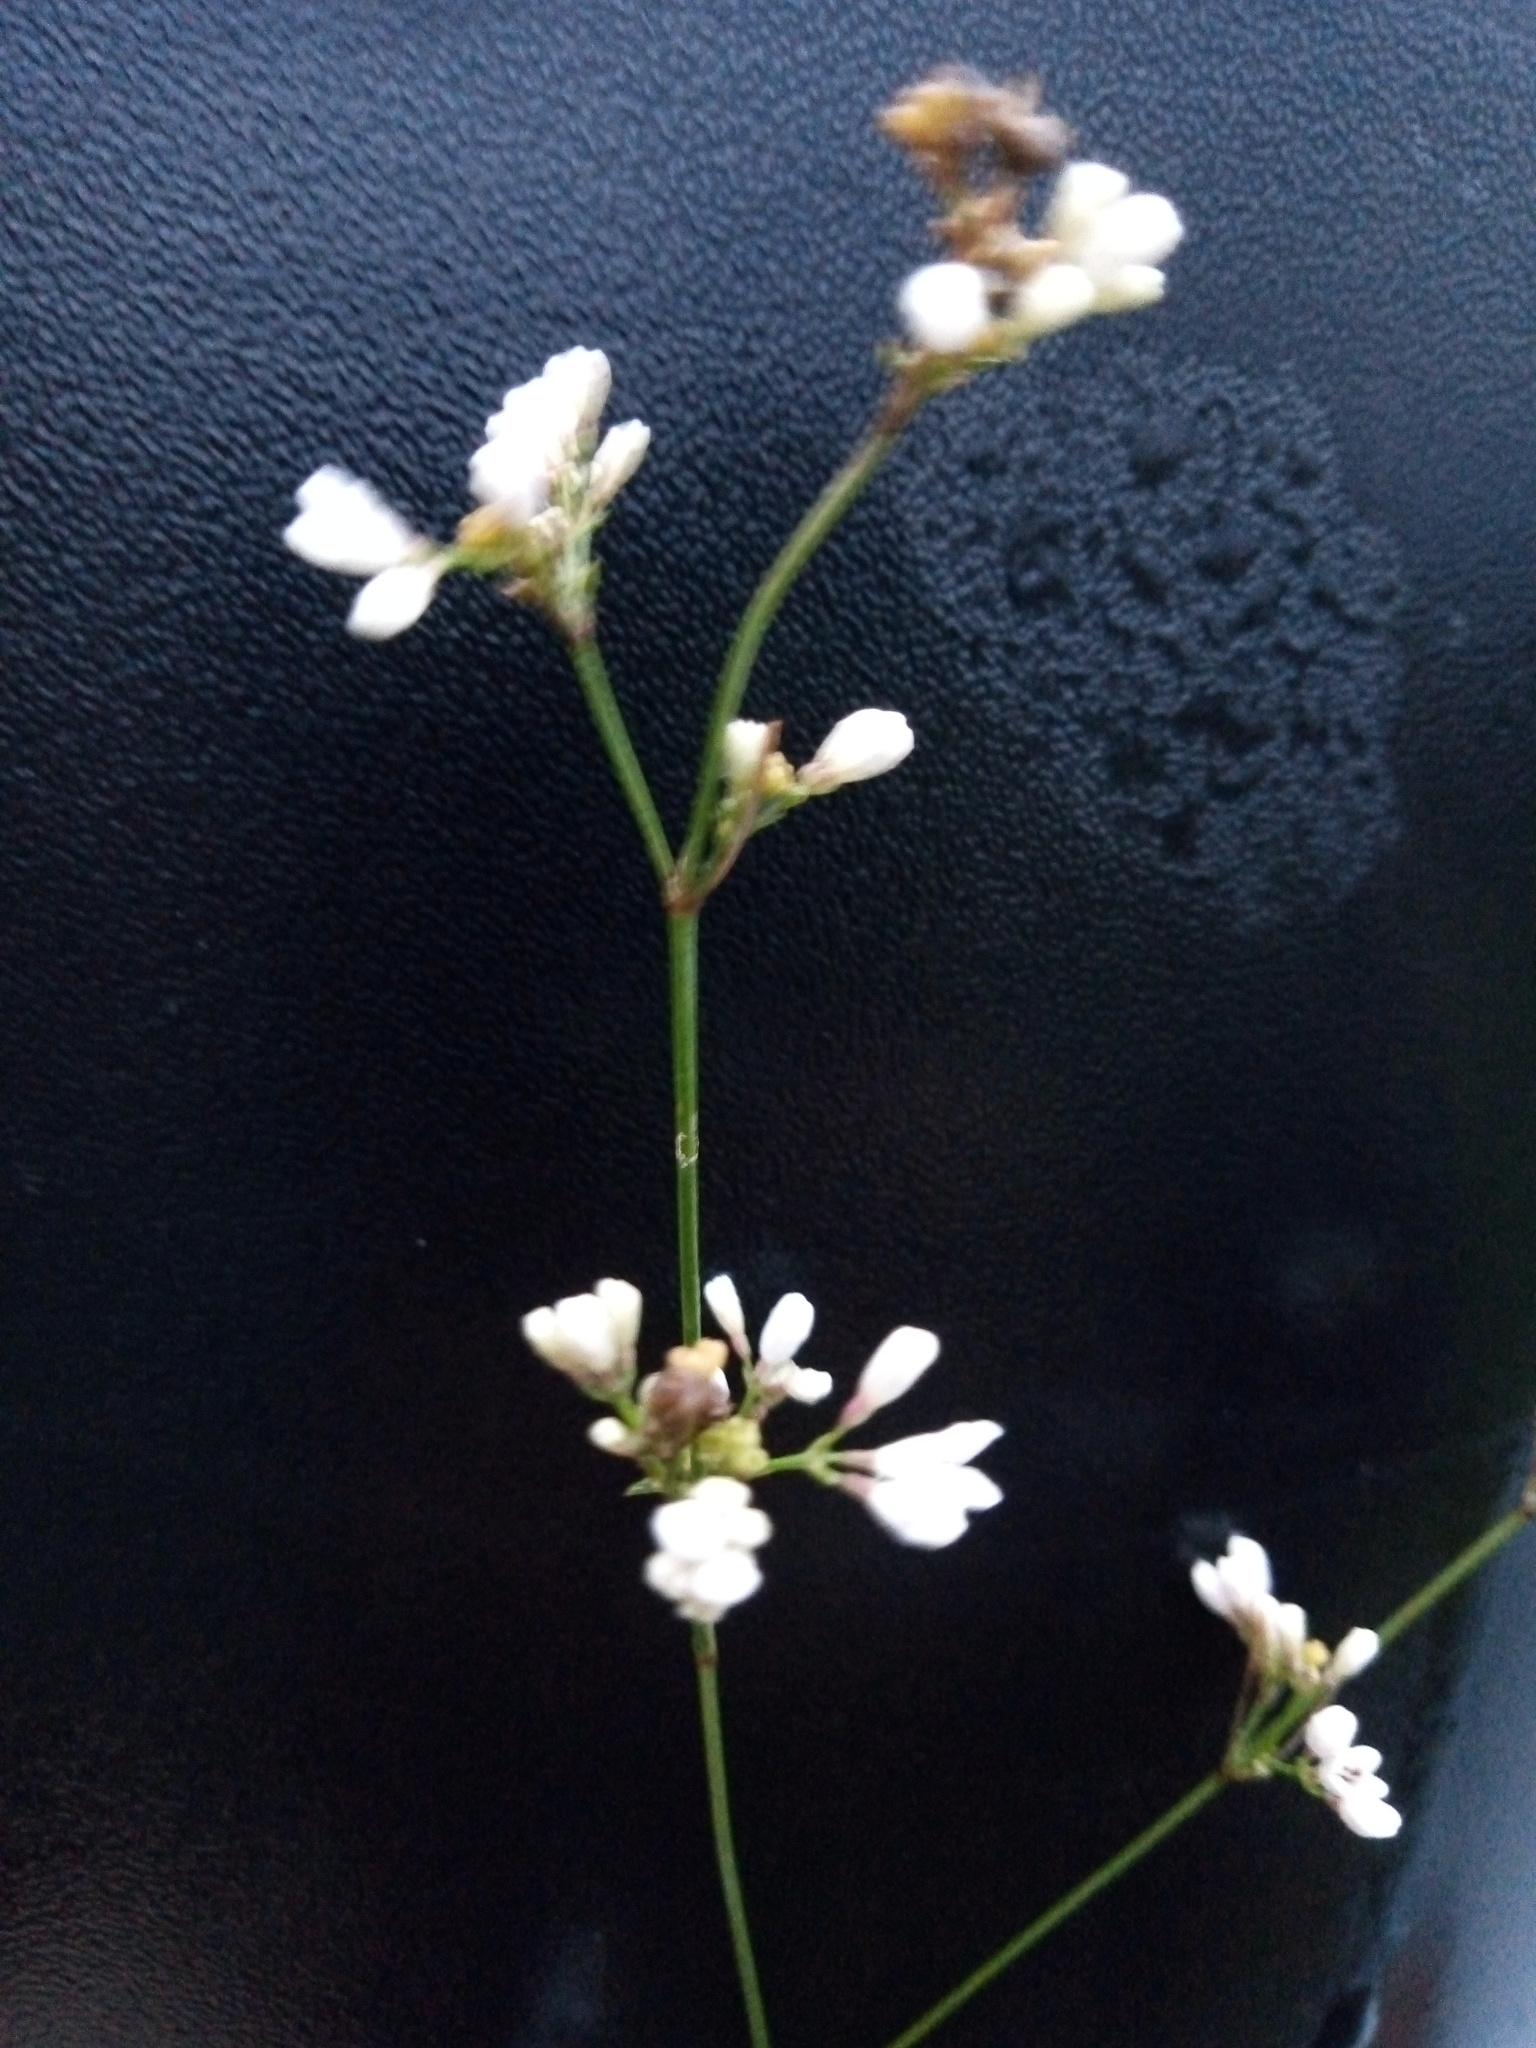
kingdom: Plantae
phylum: Tracheophyta
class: Magnoliopsida
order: Gentianales
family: Rubiaceae
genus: Cynanchica
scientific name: Cynanchica pyrenaica
